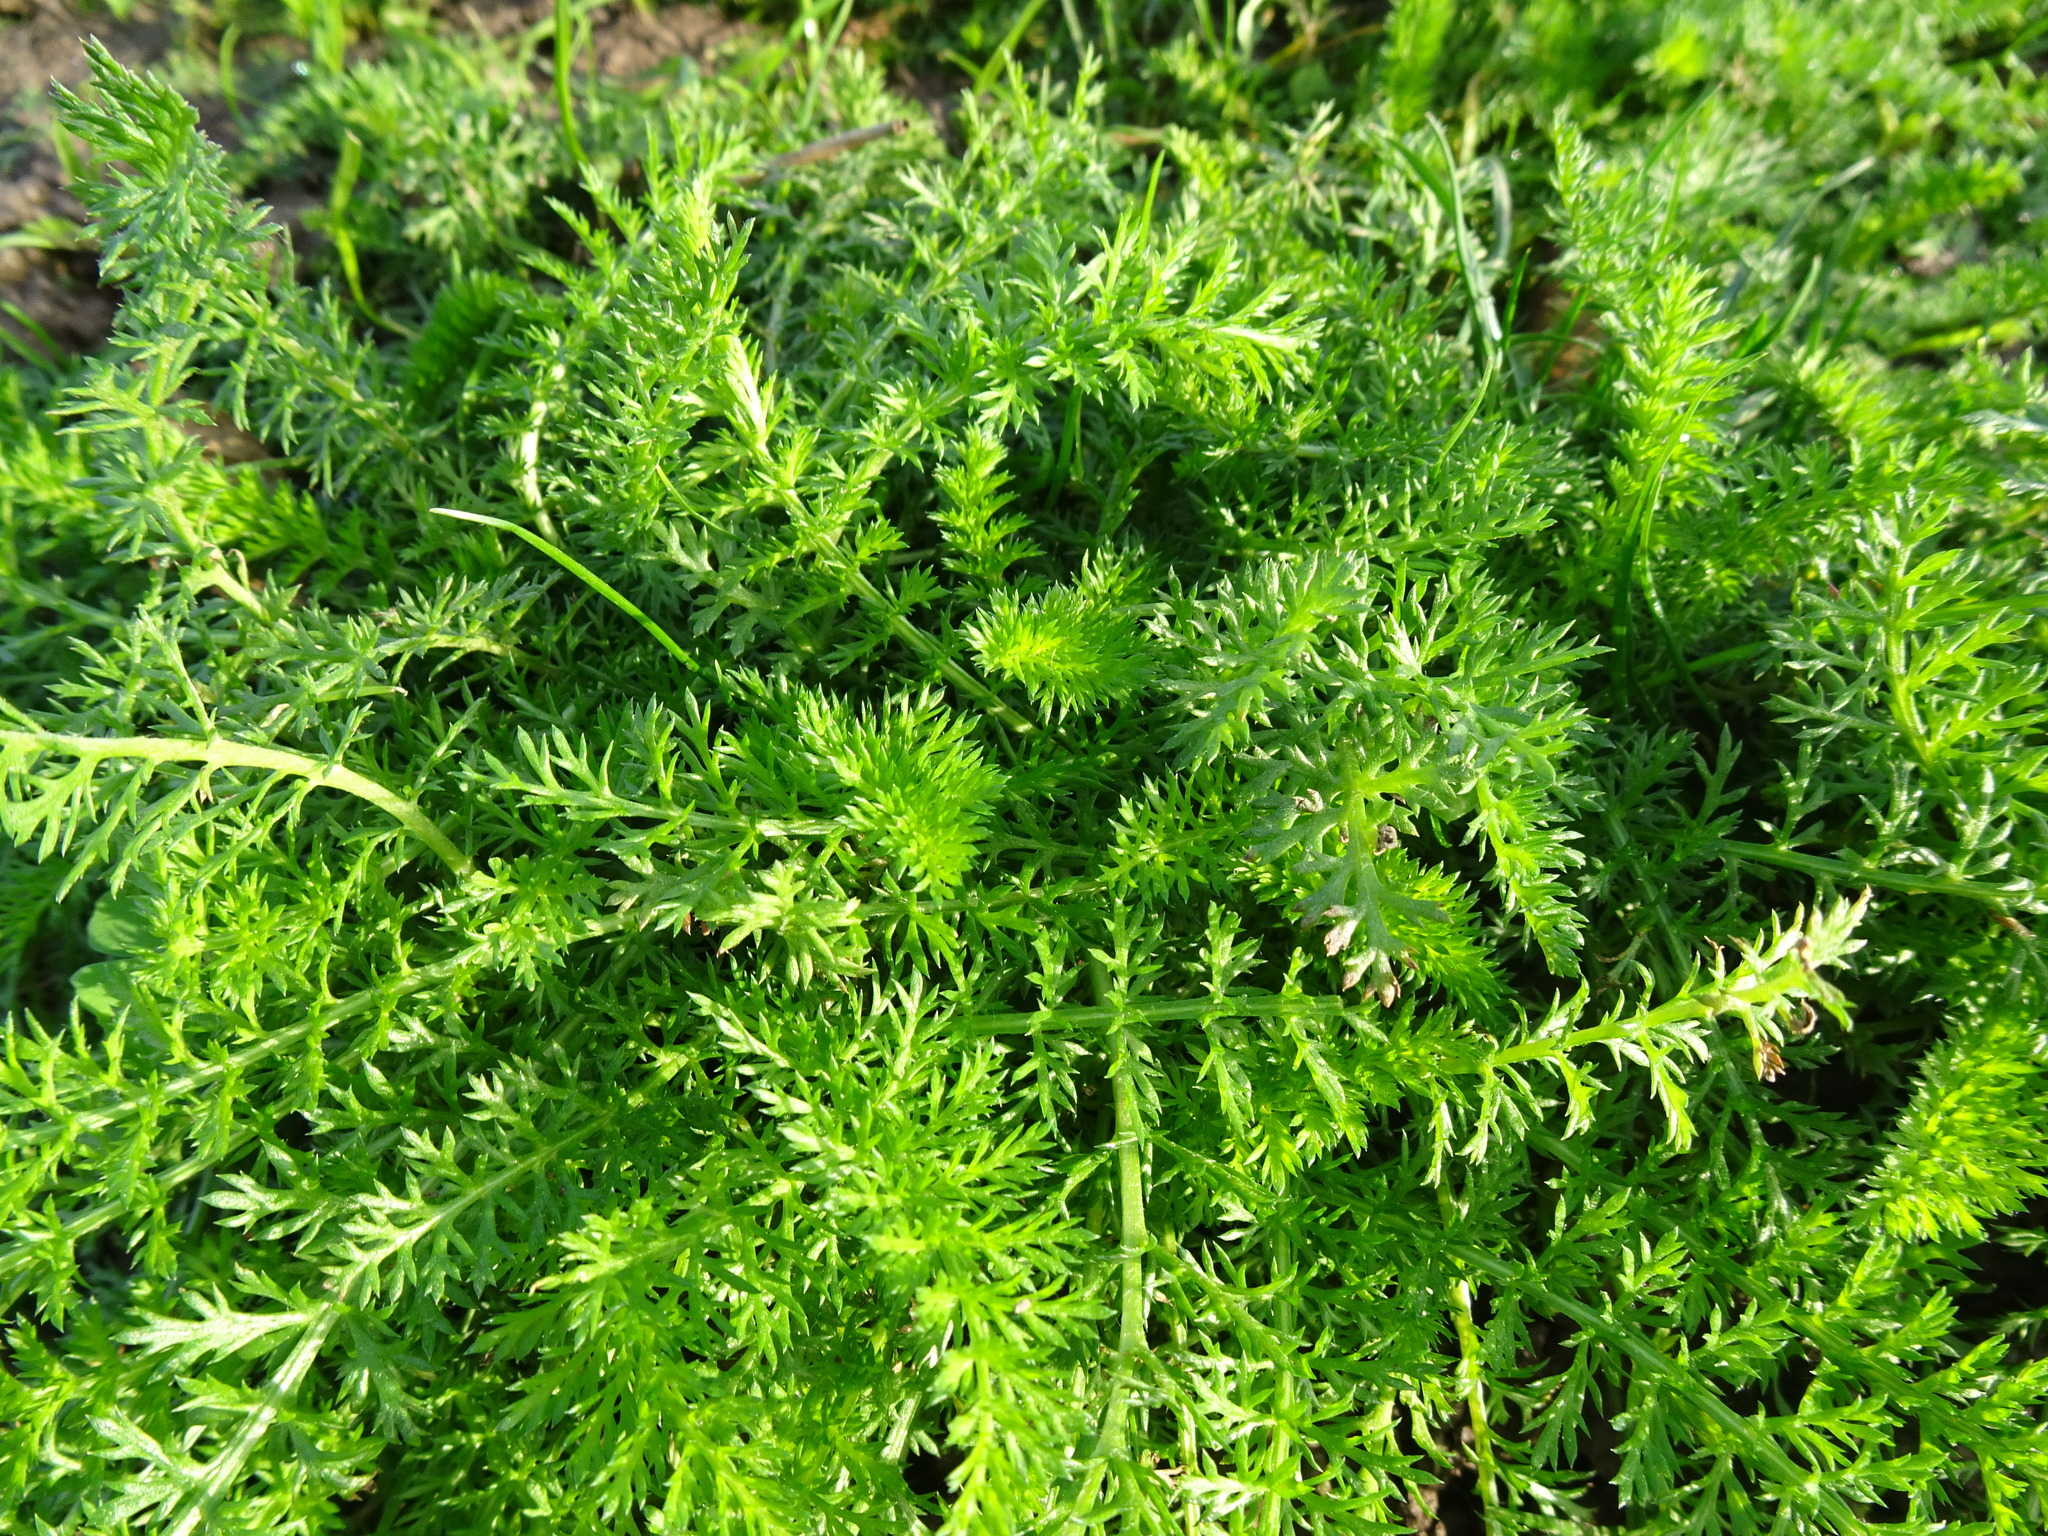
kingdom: Plantae
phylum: Tracheophyta
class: Magnoliopsida
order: Asterales
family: Asteraceae
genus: Achillea
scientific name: Achillea millefolium
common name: Yarrow
